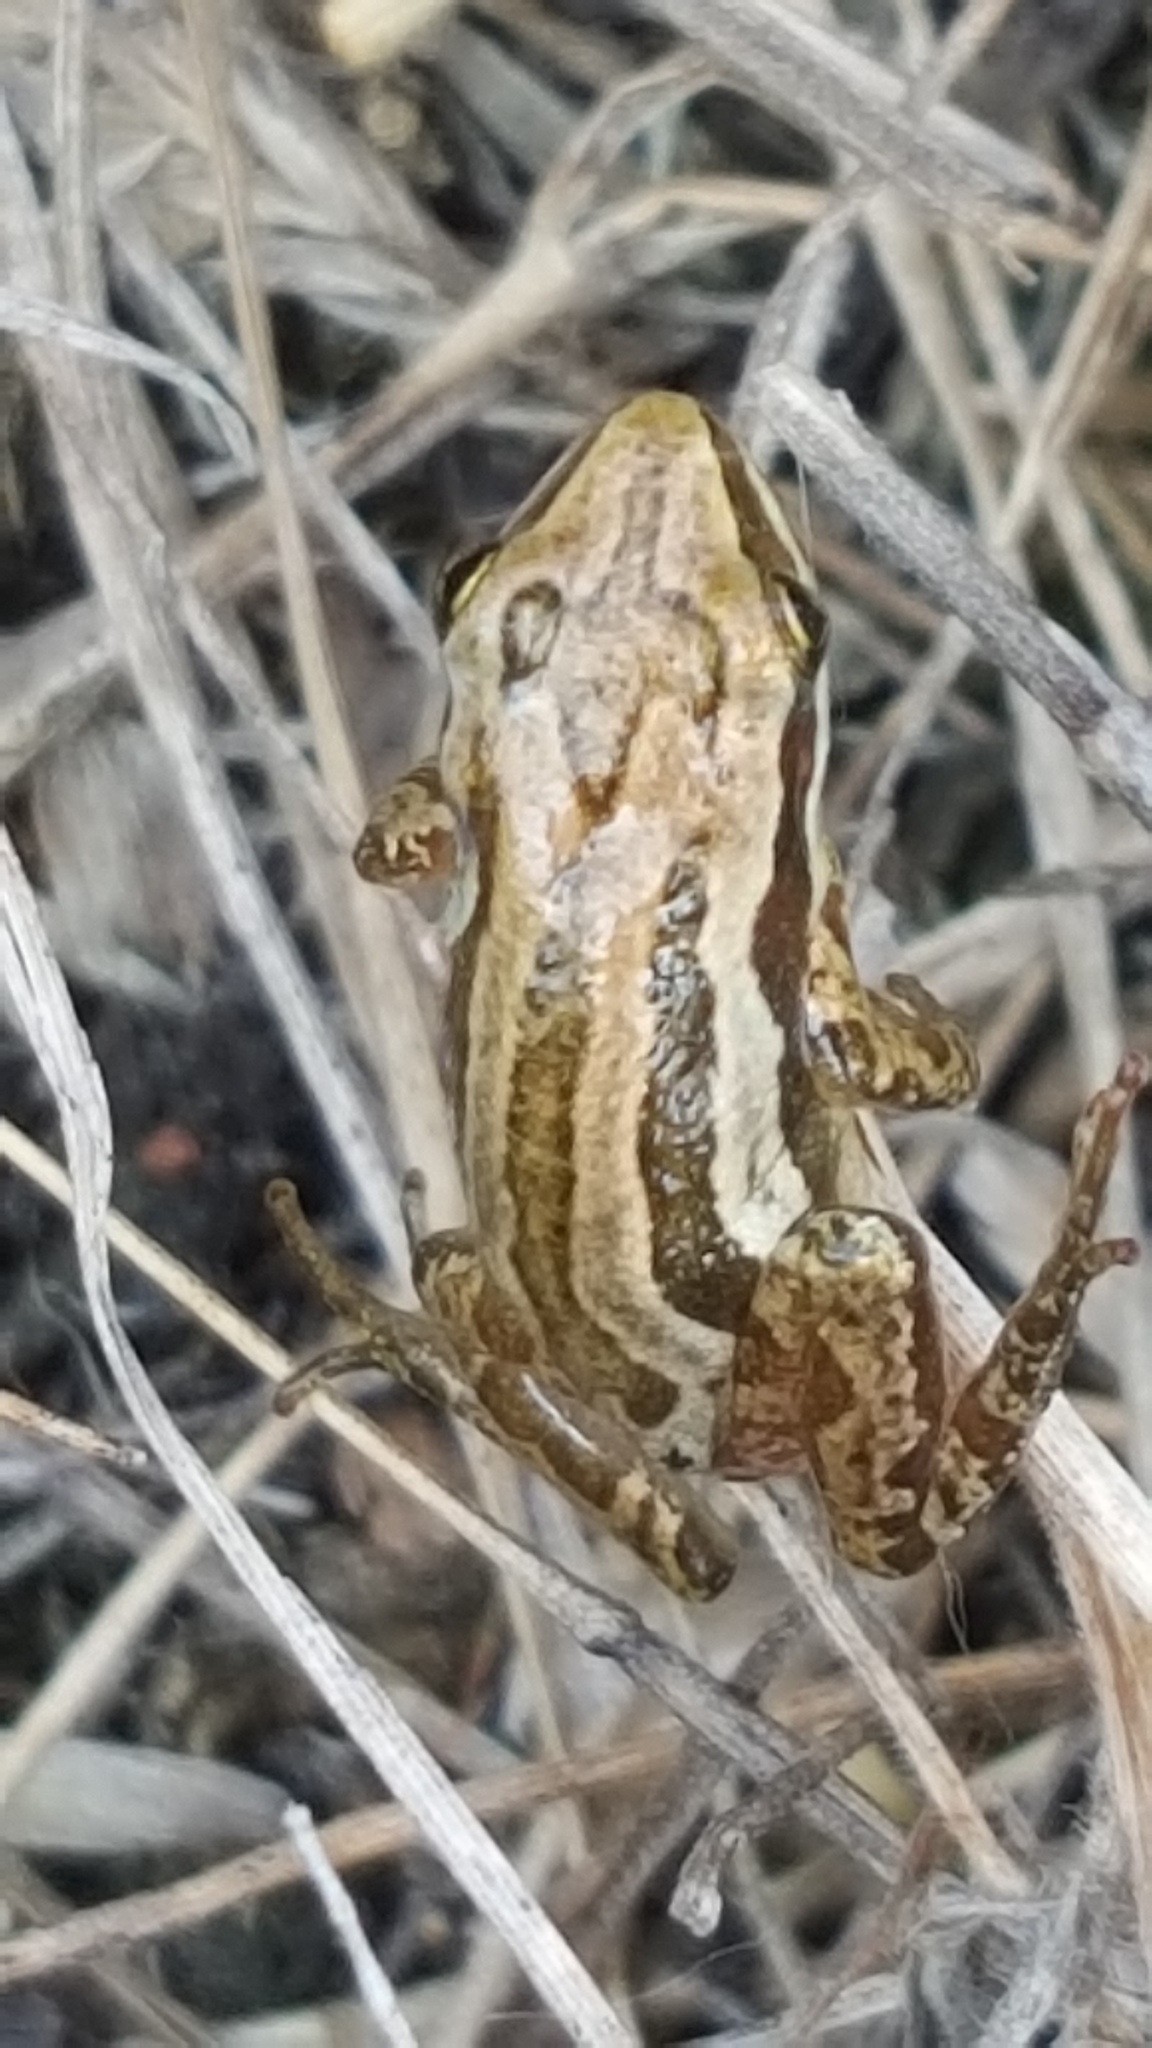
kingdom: Animalia
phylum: Chordata
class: Amphibia
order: Anura
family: Hylidae
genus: Pseudacris
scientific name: Pseudacris maculata
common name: Boreal chorus frog
